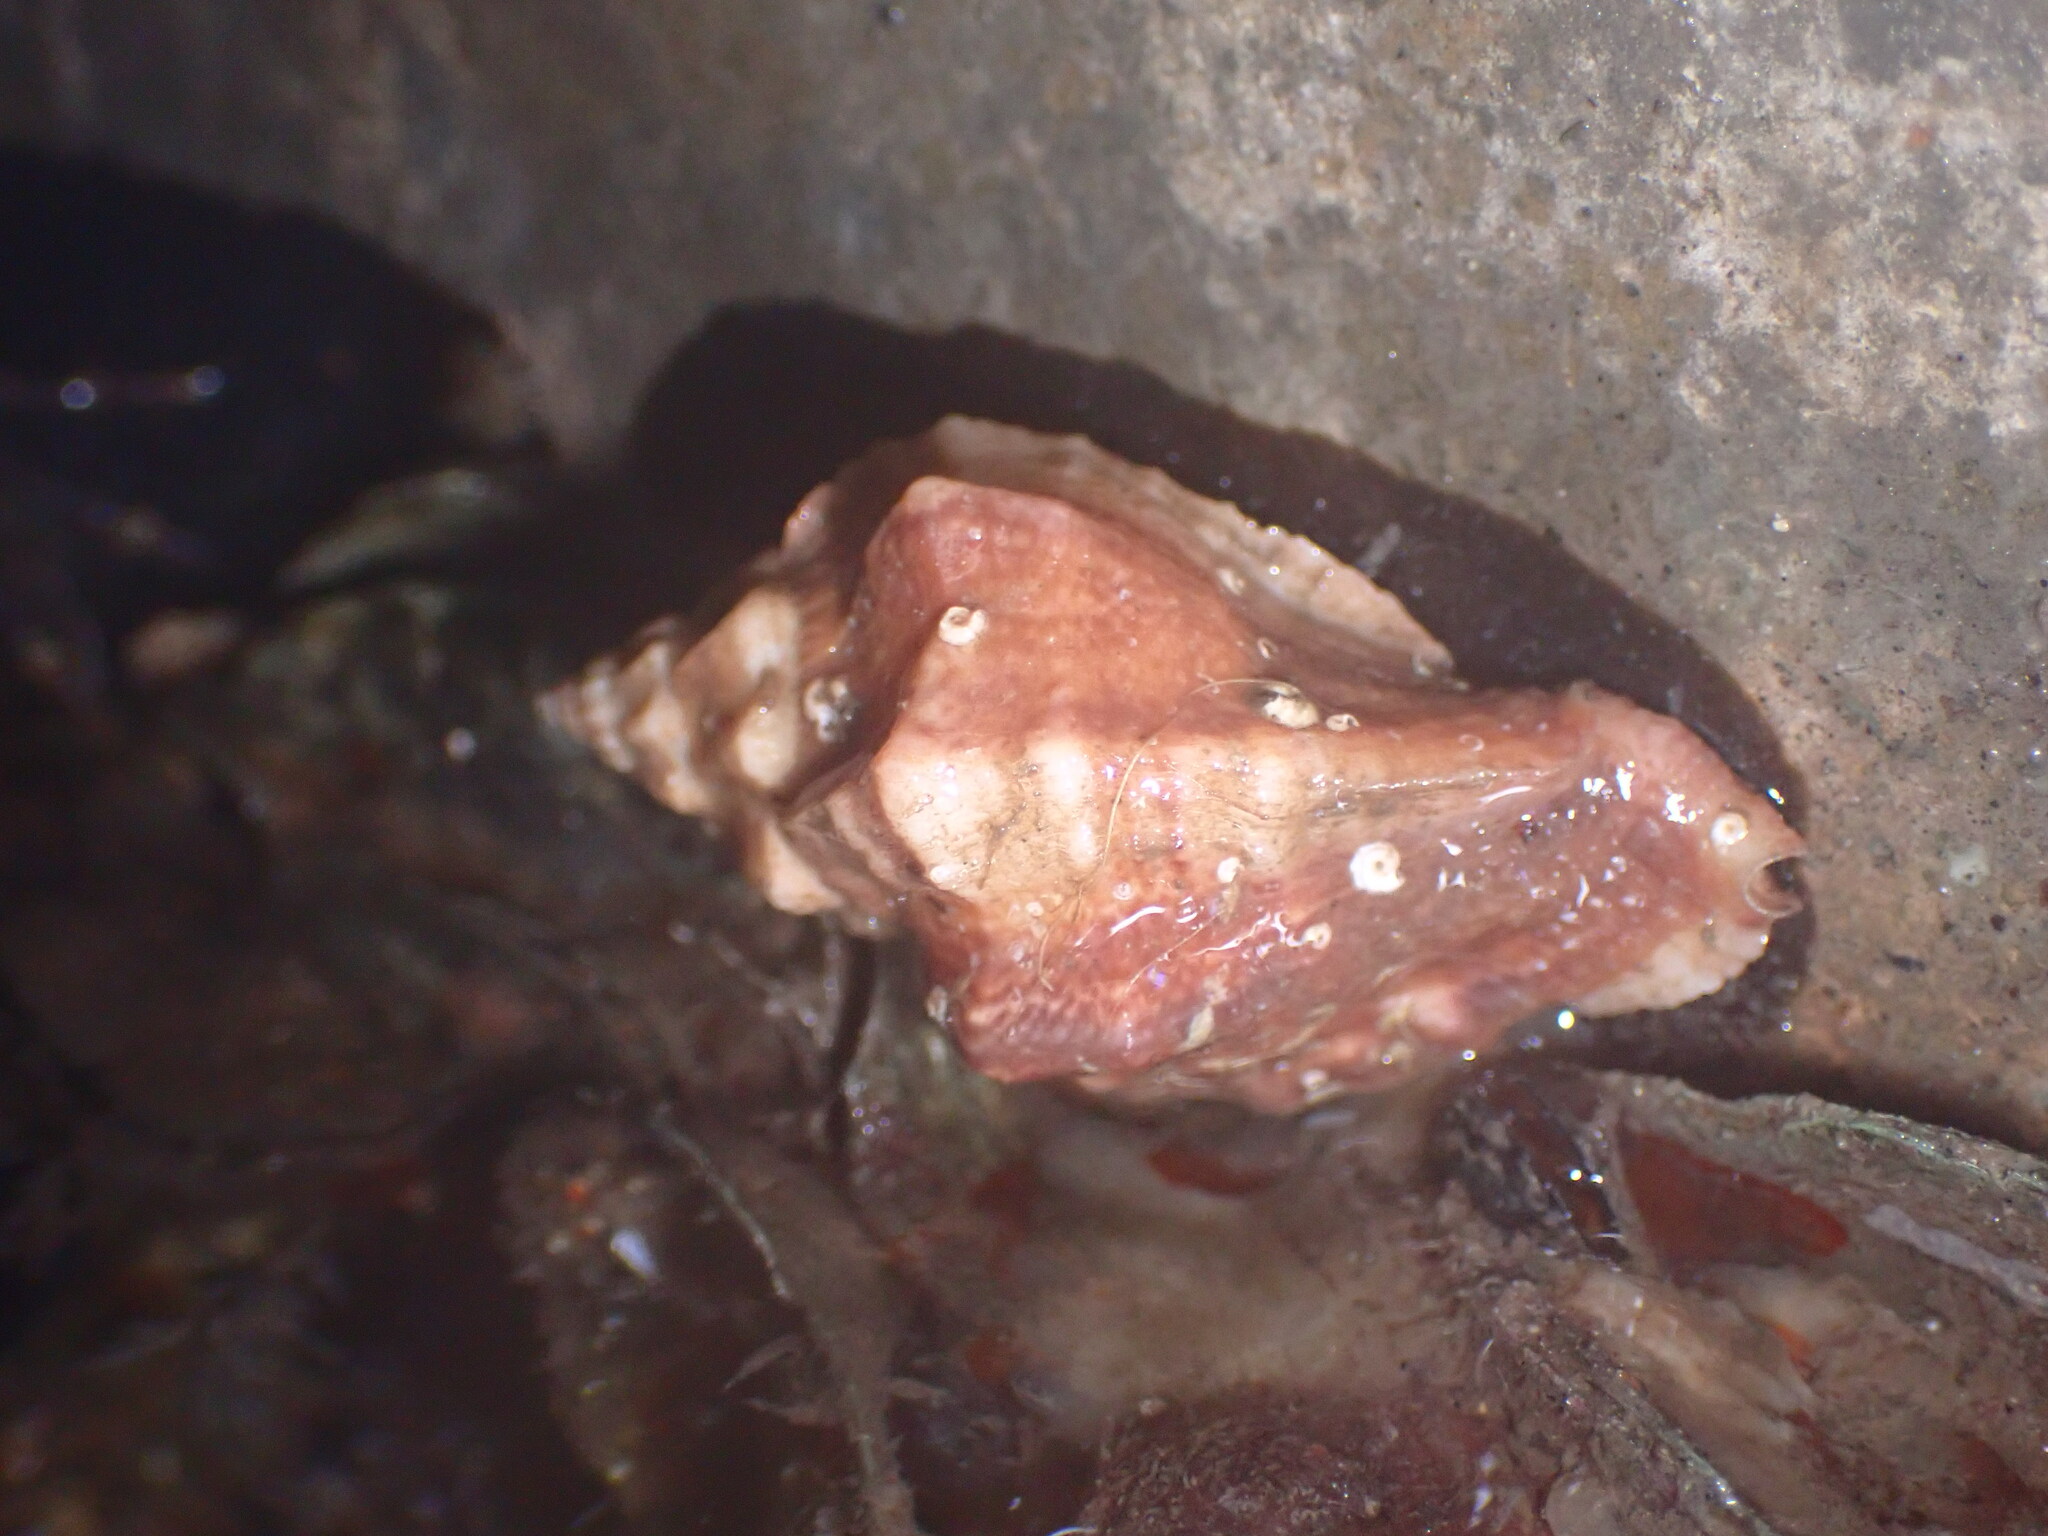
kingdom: Animalia
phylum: Mollusca
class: Gastropoda
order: Neogastropoda
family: Muricidae
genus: Ceratostoma
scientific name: Ceratostoma nuttalli
